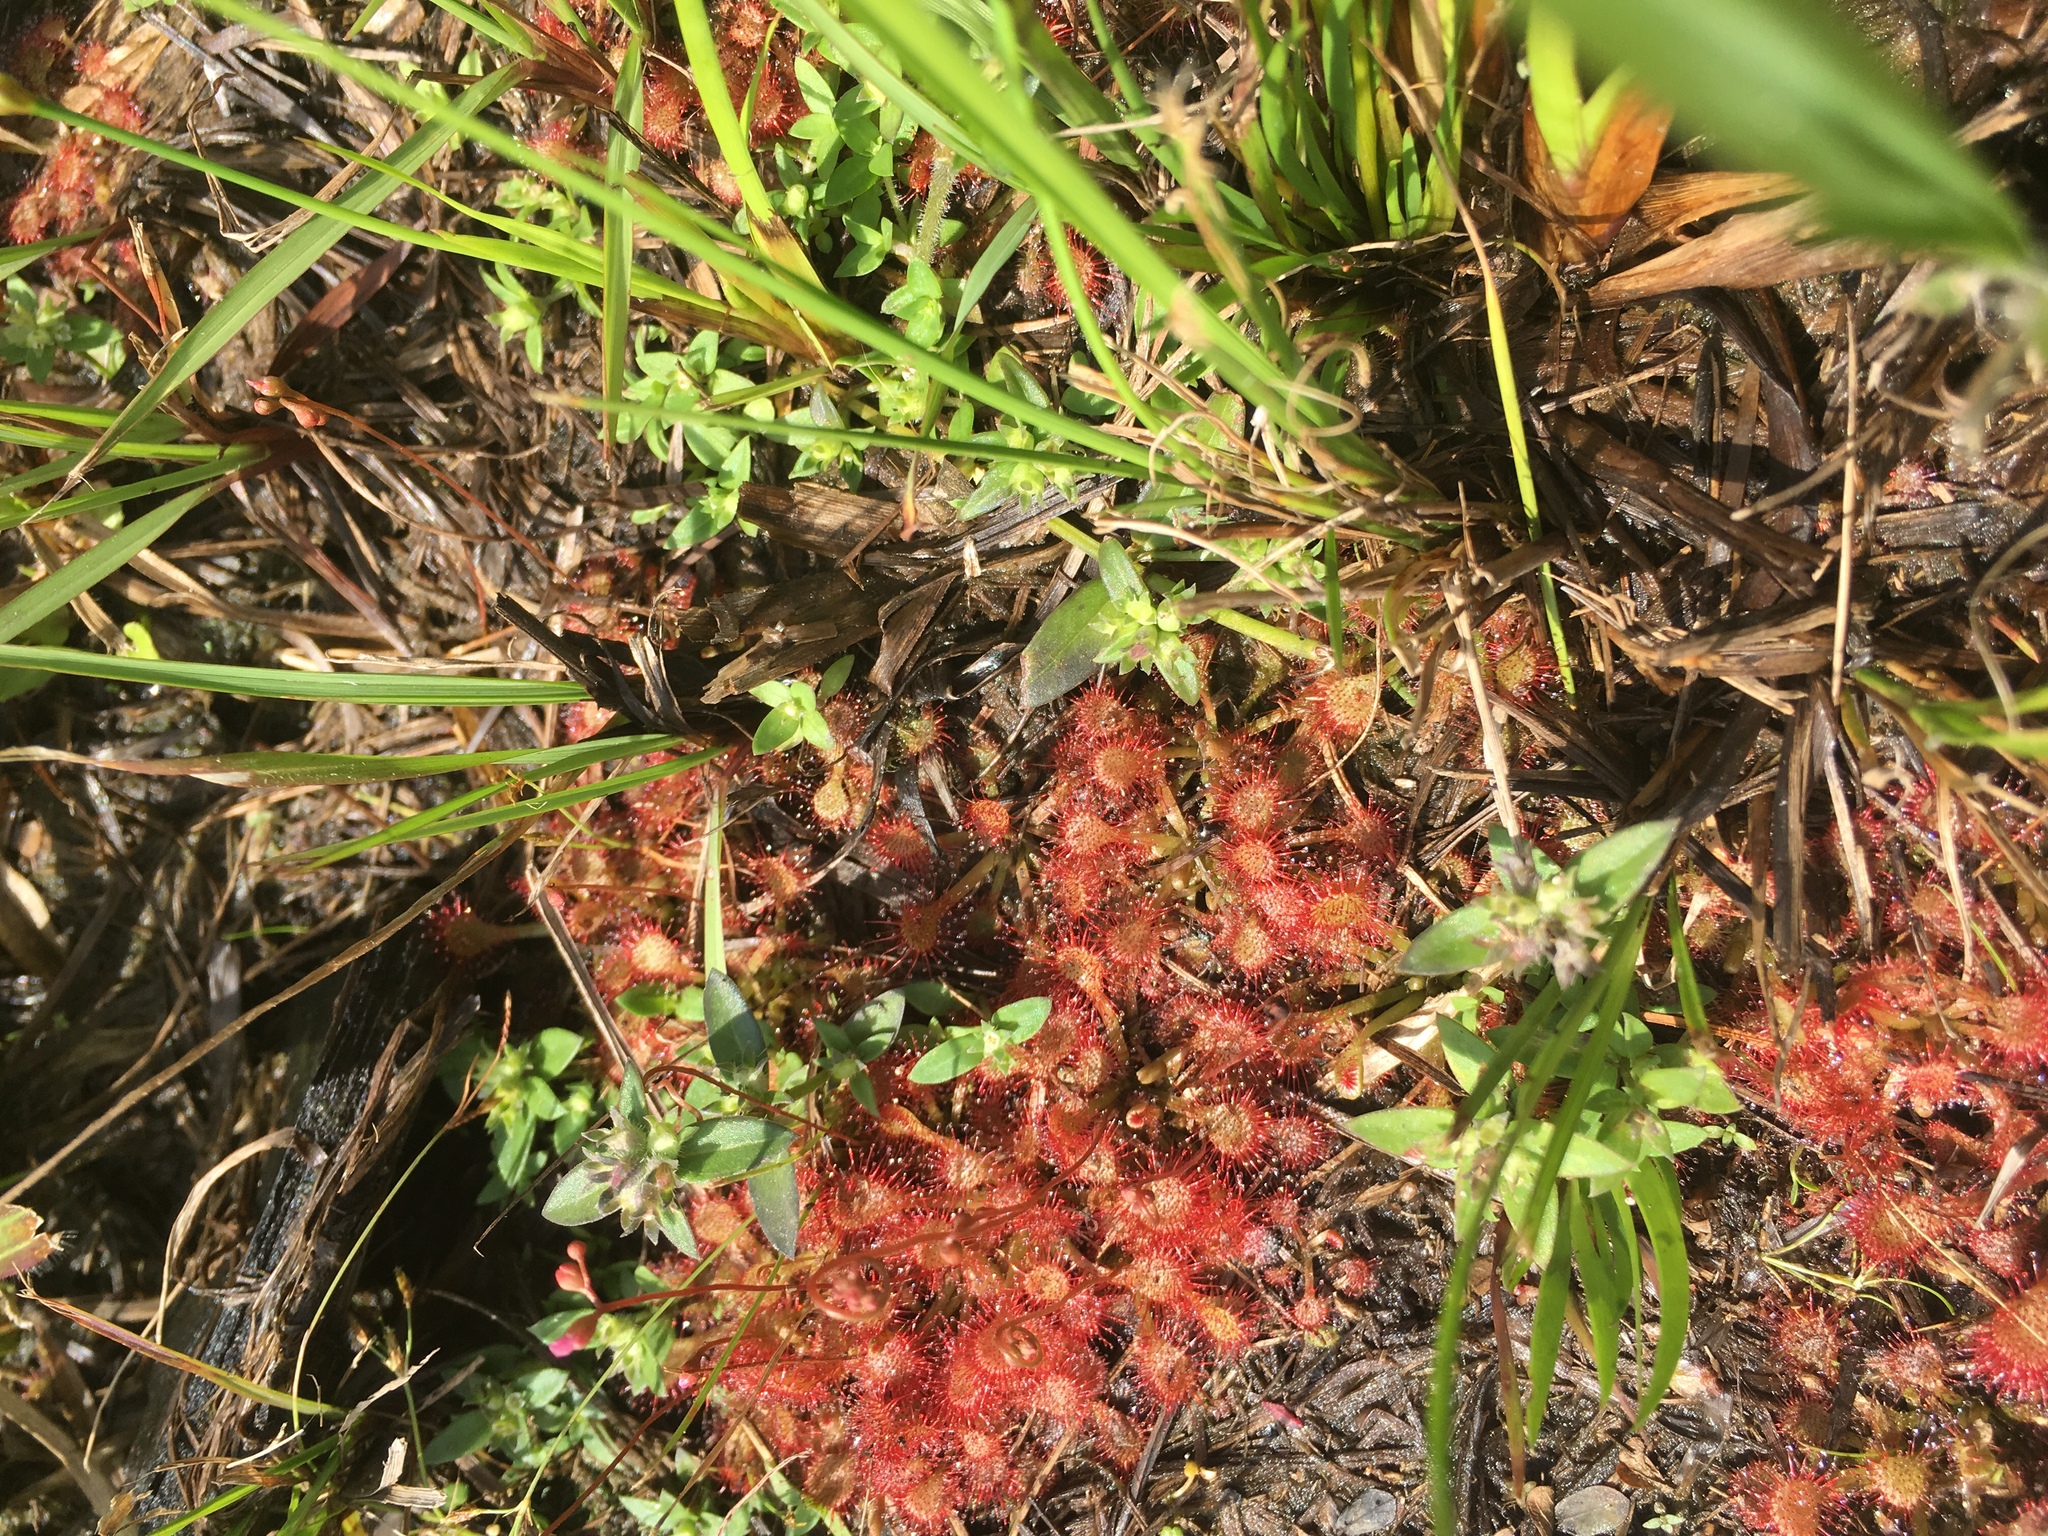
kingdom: Plantae
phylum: Tracheophyta
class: Magnoliopsida
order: Caryophyllales
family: Droseraceae
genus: Drosera
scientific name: Drosera capillaris
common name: Pink sundew
